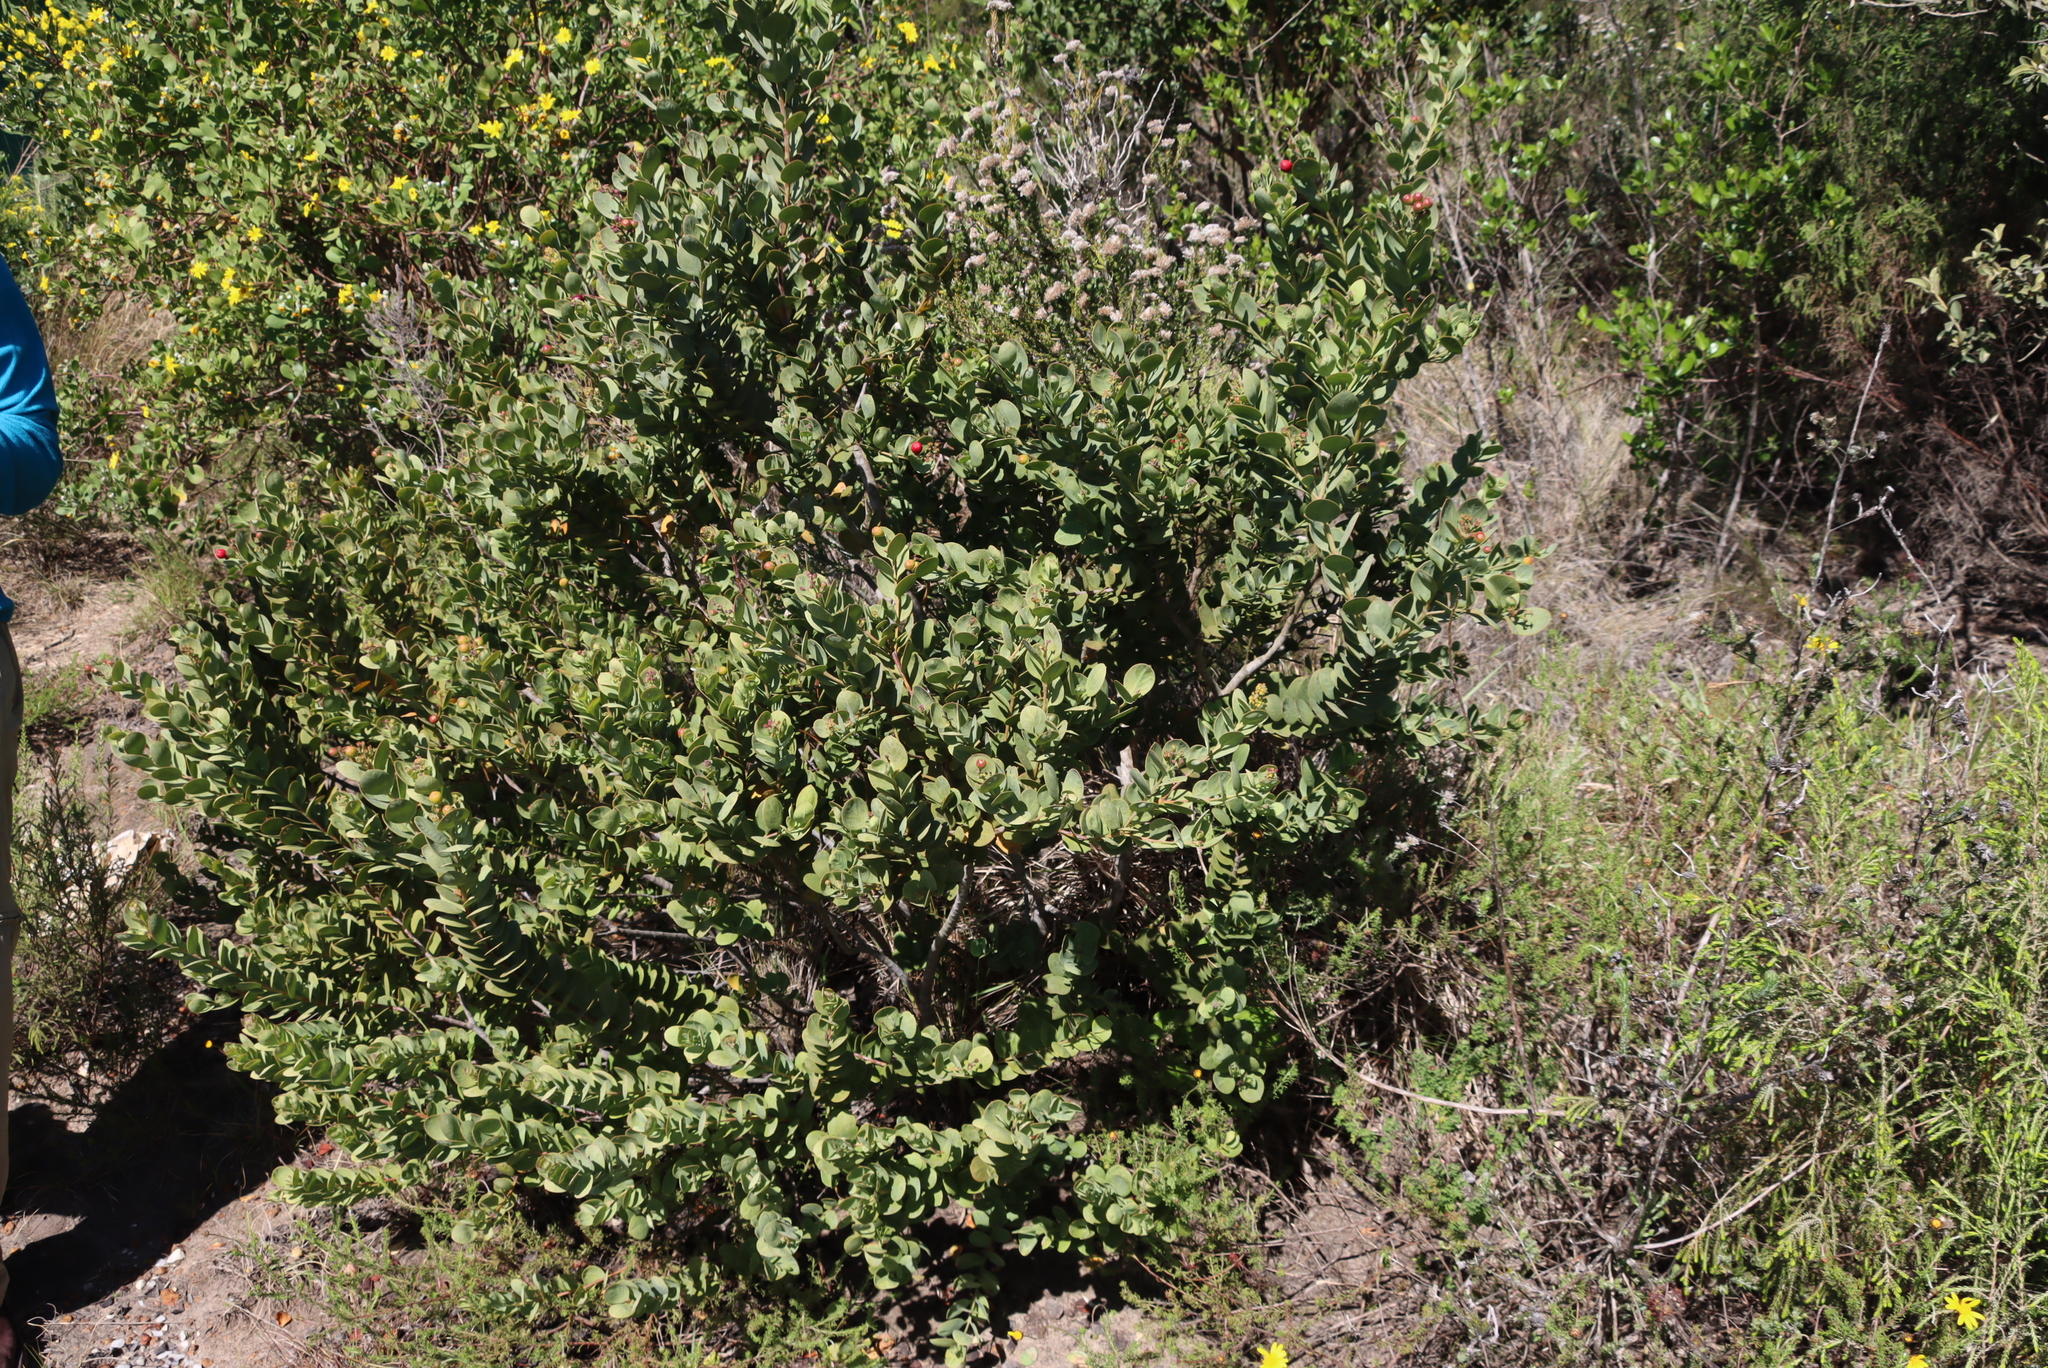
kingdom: Plantae
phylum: Tracheophyta
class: Magnoliopsida
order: Santalales
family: Santalaceae
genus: Osyris
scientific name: Osyris compressa
